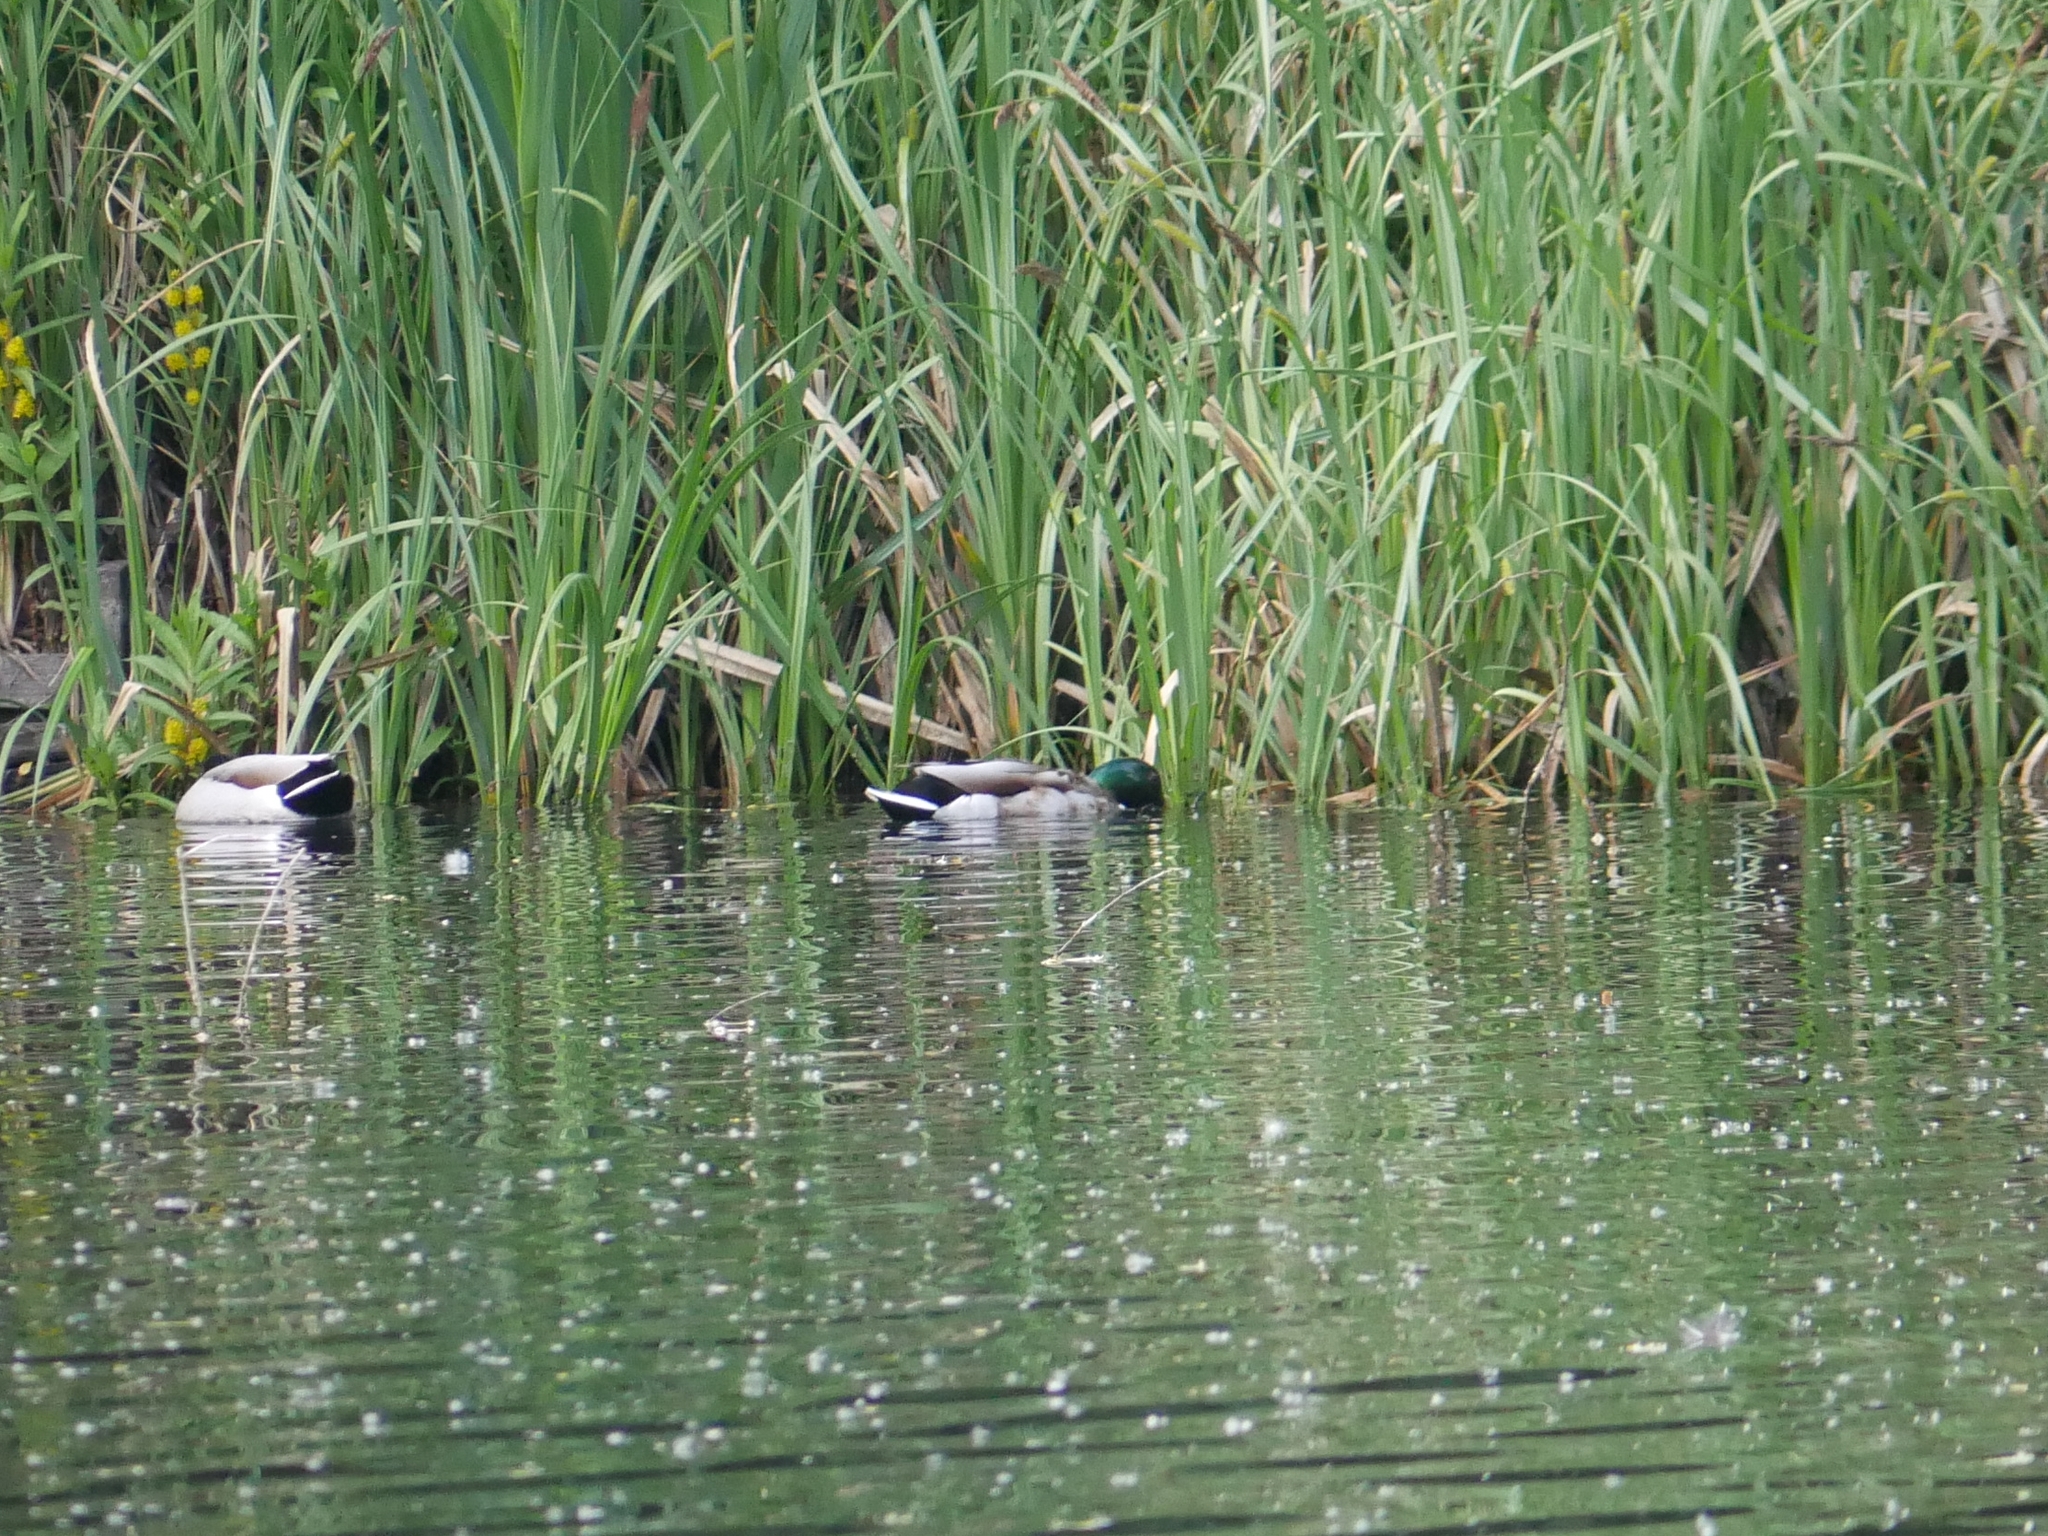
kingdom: Animalia
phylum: Chordata
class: Aves
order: Anseriformes
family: Anatidae
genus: Anas
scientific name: Anas platyrhynchos
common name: Mallard
